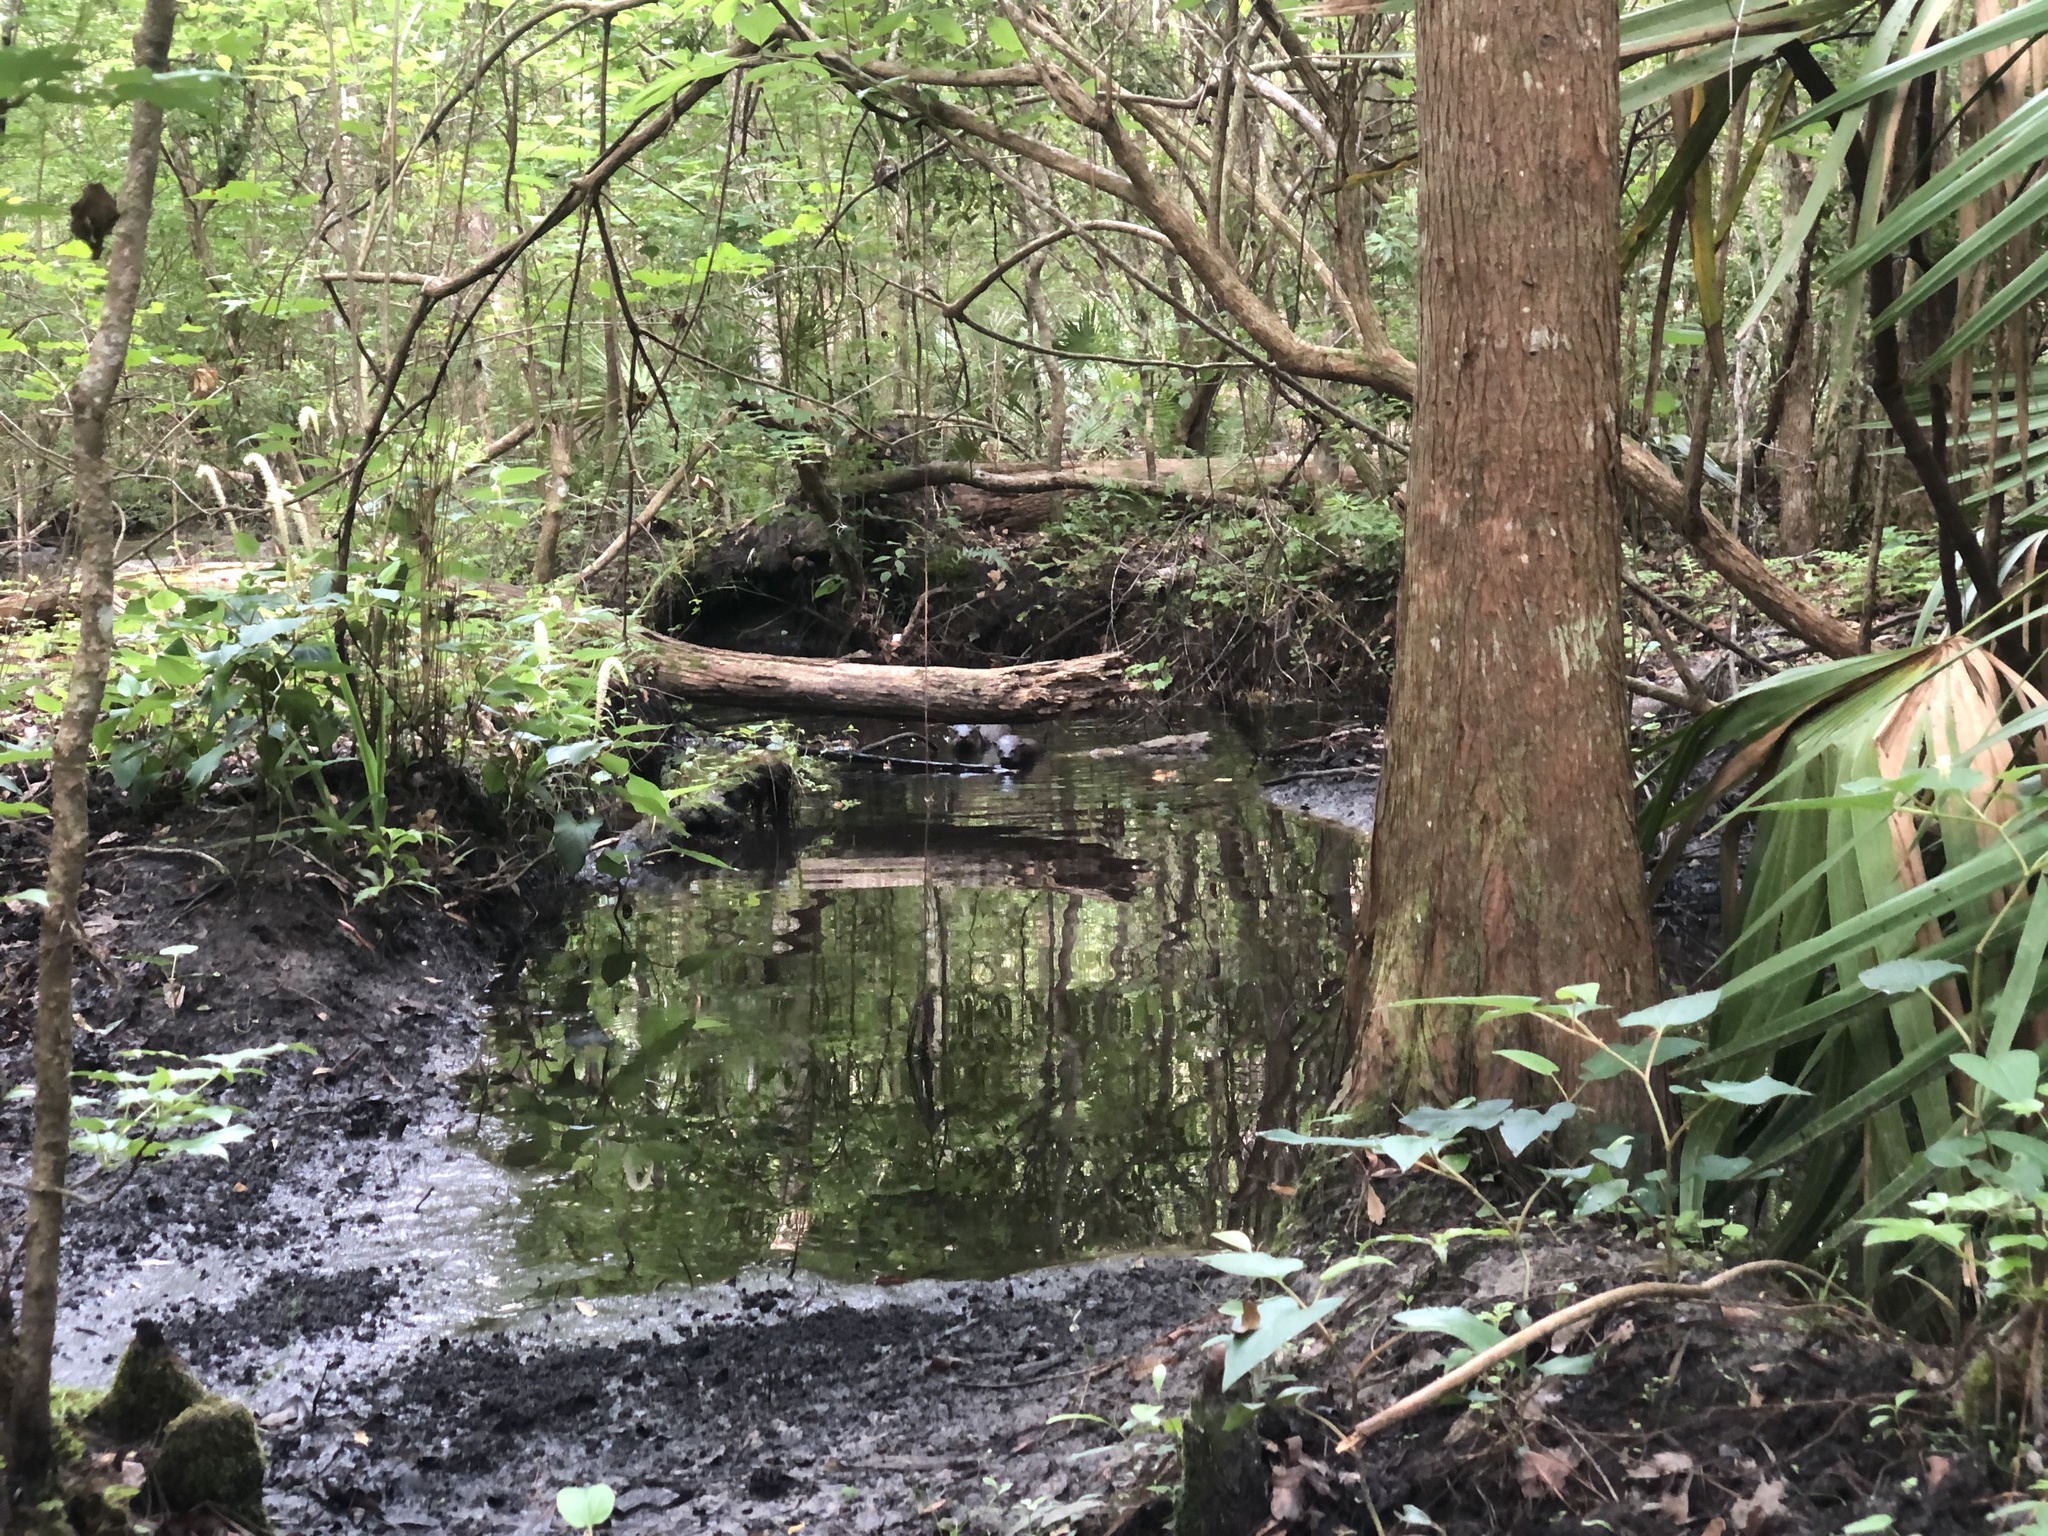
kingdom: Animalia
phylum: Chordata
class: Mammalia
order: Carnivora
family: Mustelidae
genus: Lontra
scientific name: Lontra canadensis
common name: North american river otter
